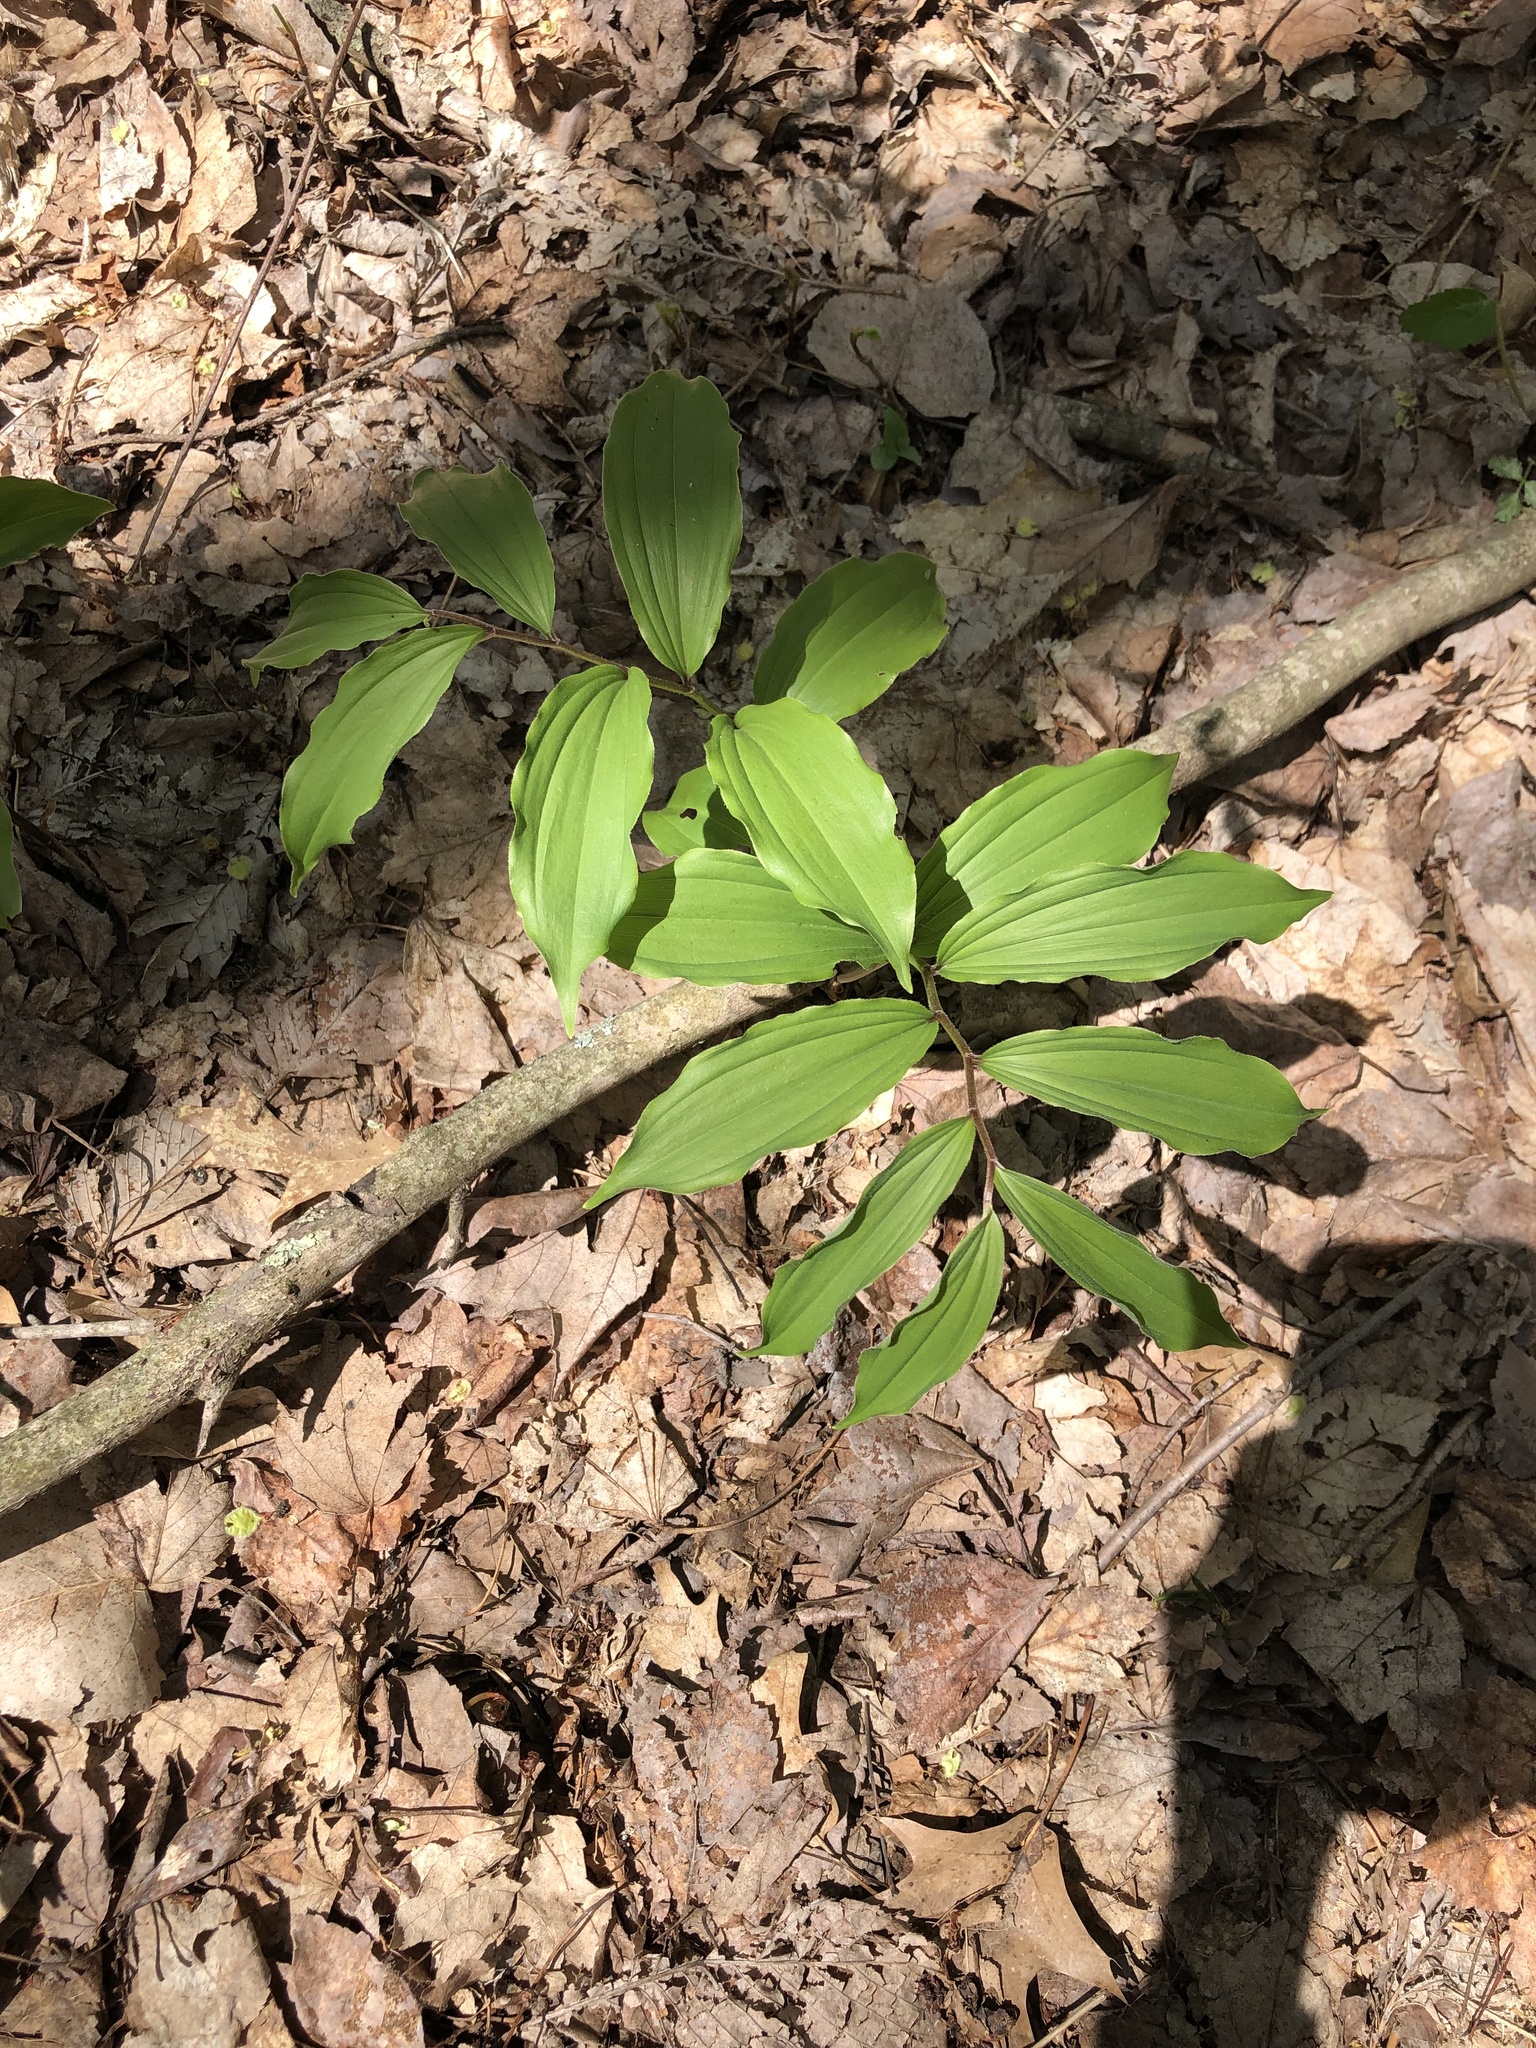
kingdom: Plantae
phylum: Tracheophyta
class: Liliopsida
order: Asparagales
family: Asparagaceae
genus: Maianthemum
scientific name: Maianthemum racemosum
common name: False spikenard
